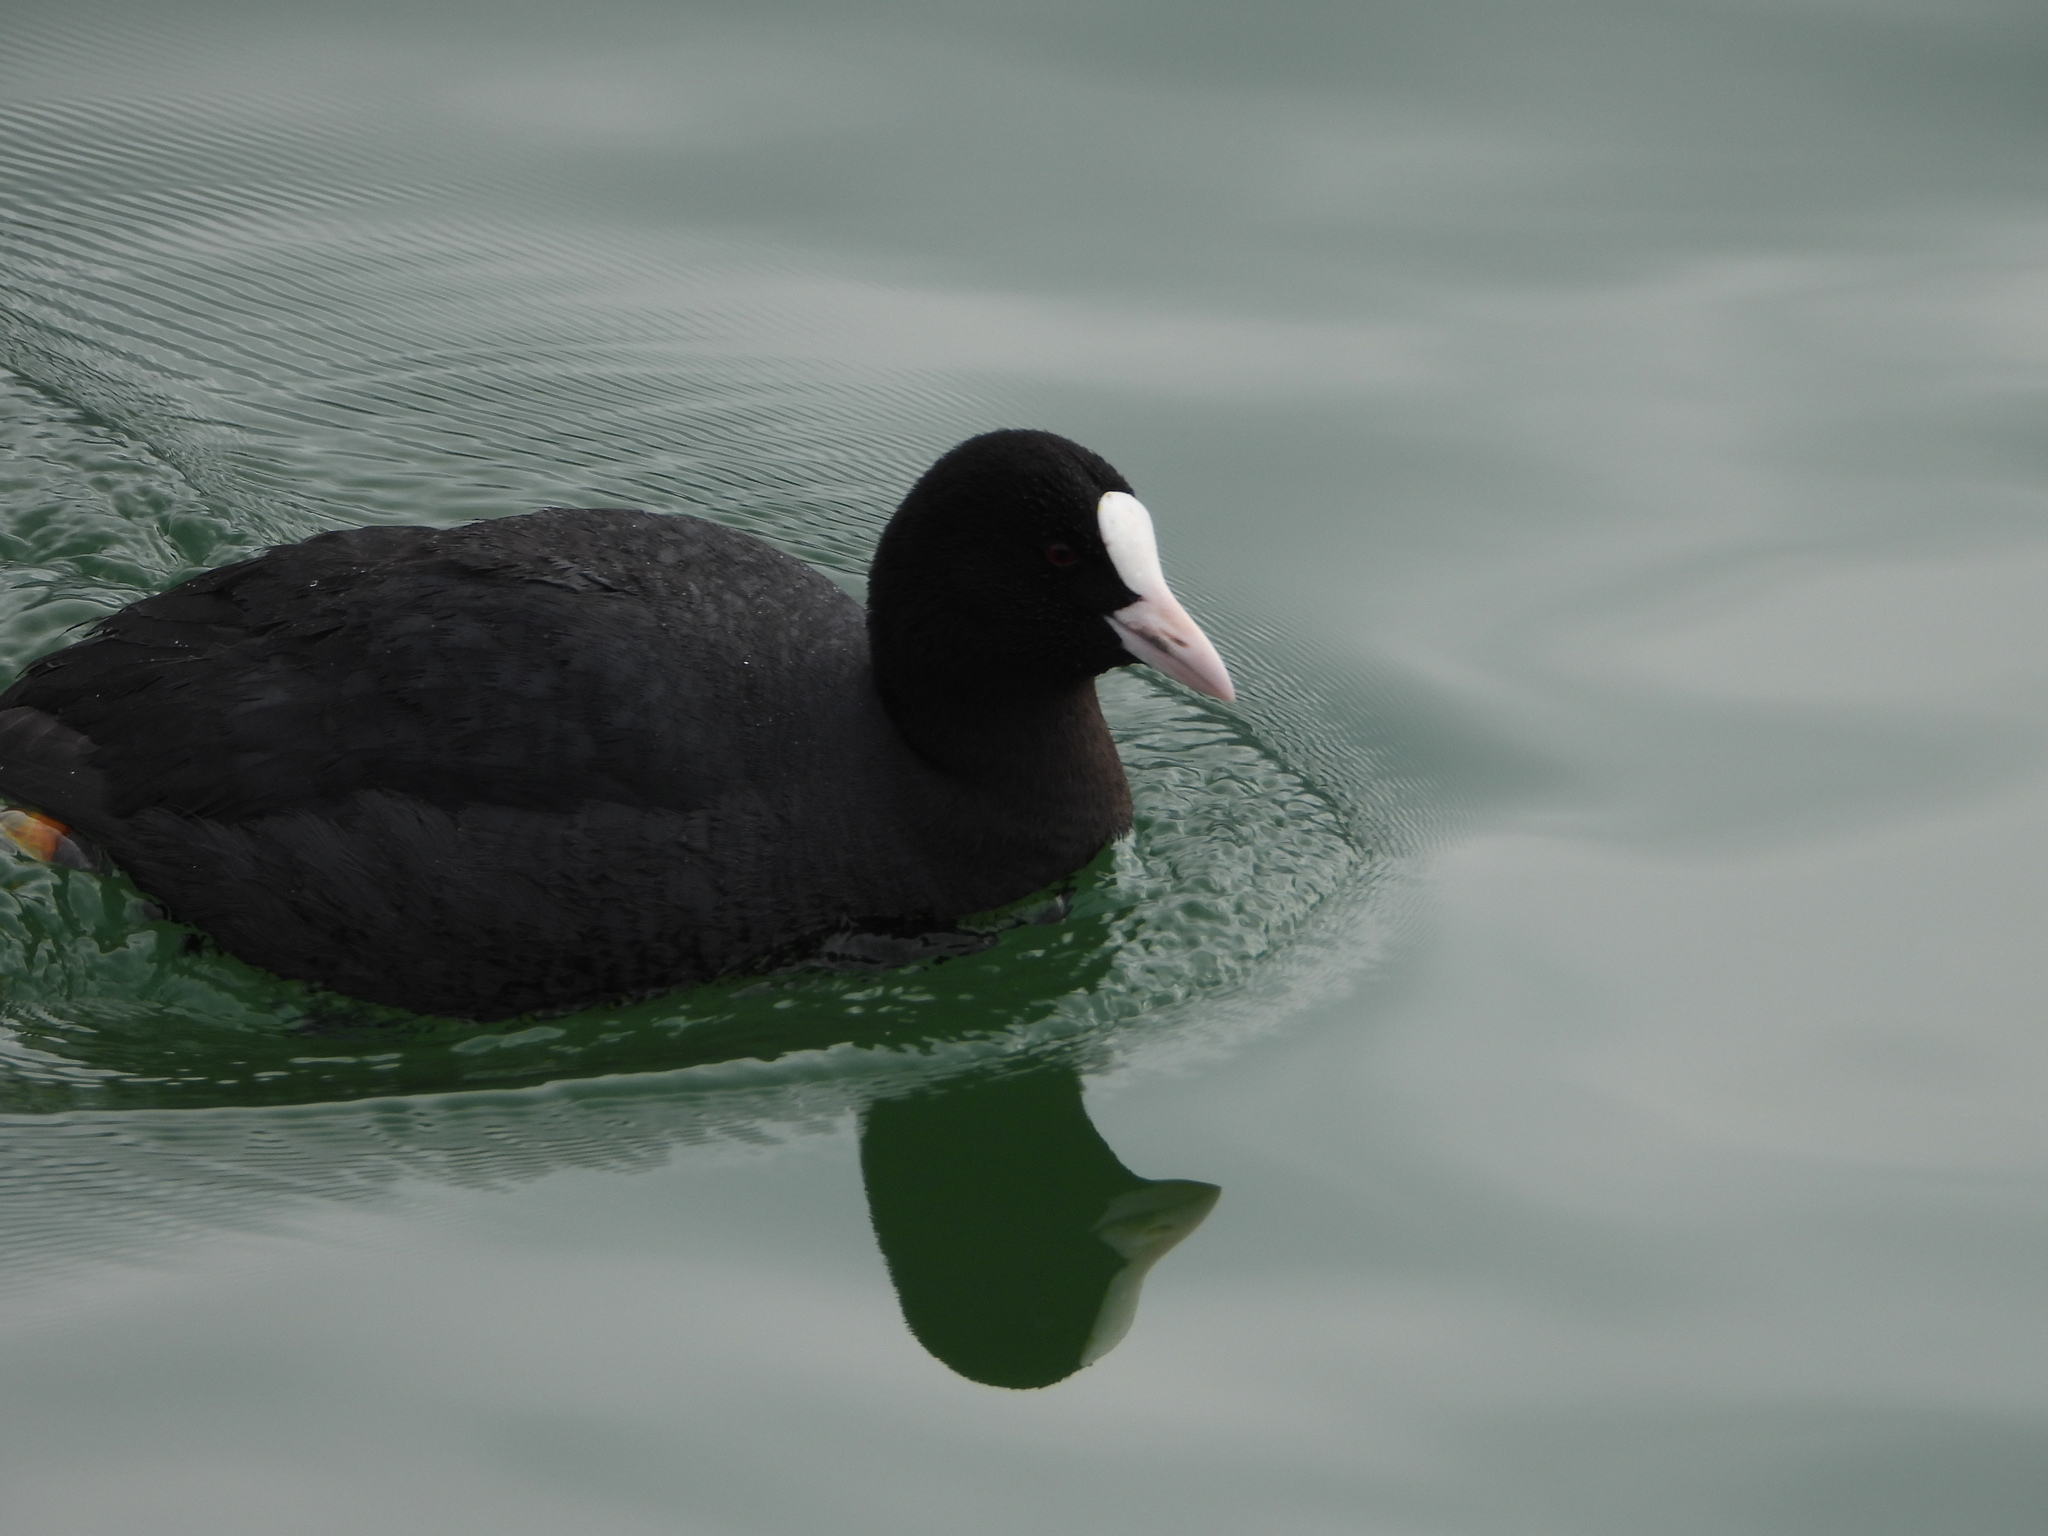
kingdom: Animalia
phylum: Chordata
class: Aves
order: Gruiformes
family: Rallidae
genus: Fulica
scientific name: Fulica atra
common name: Eurasian coot
